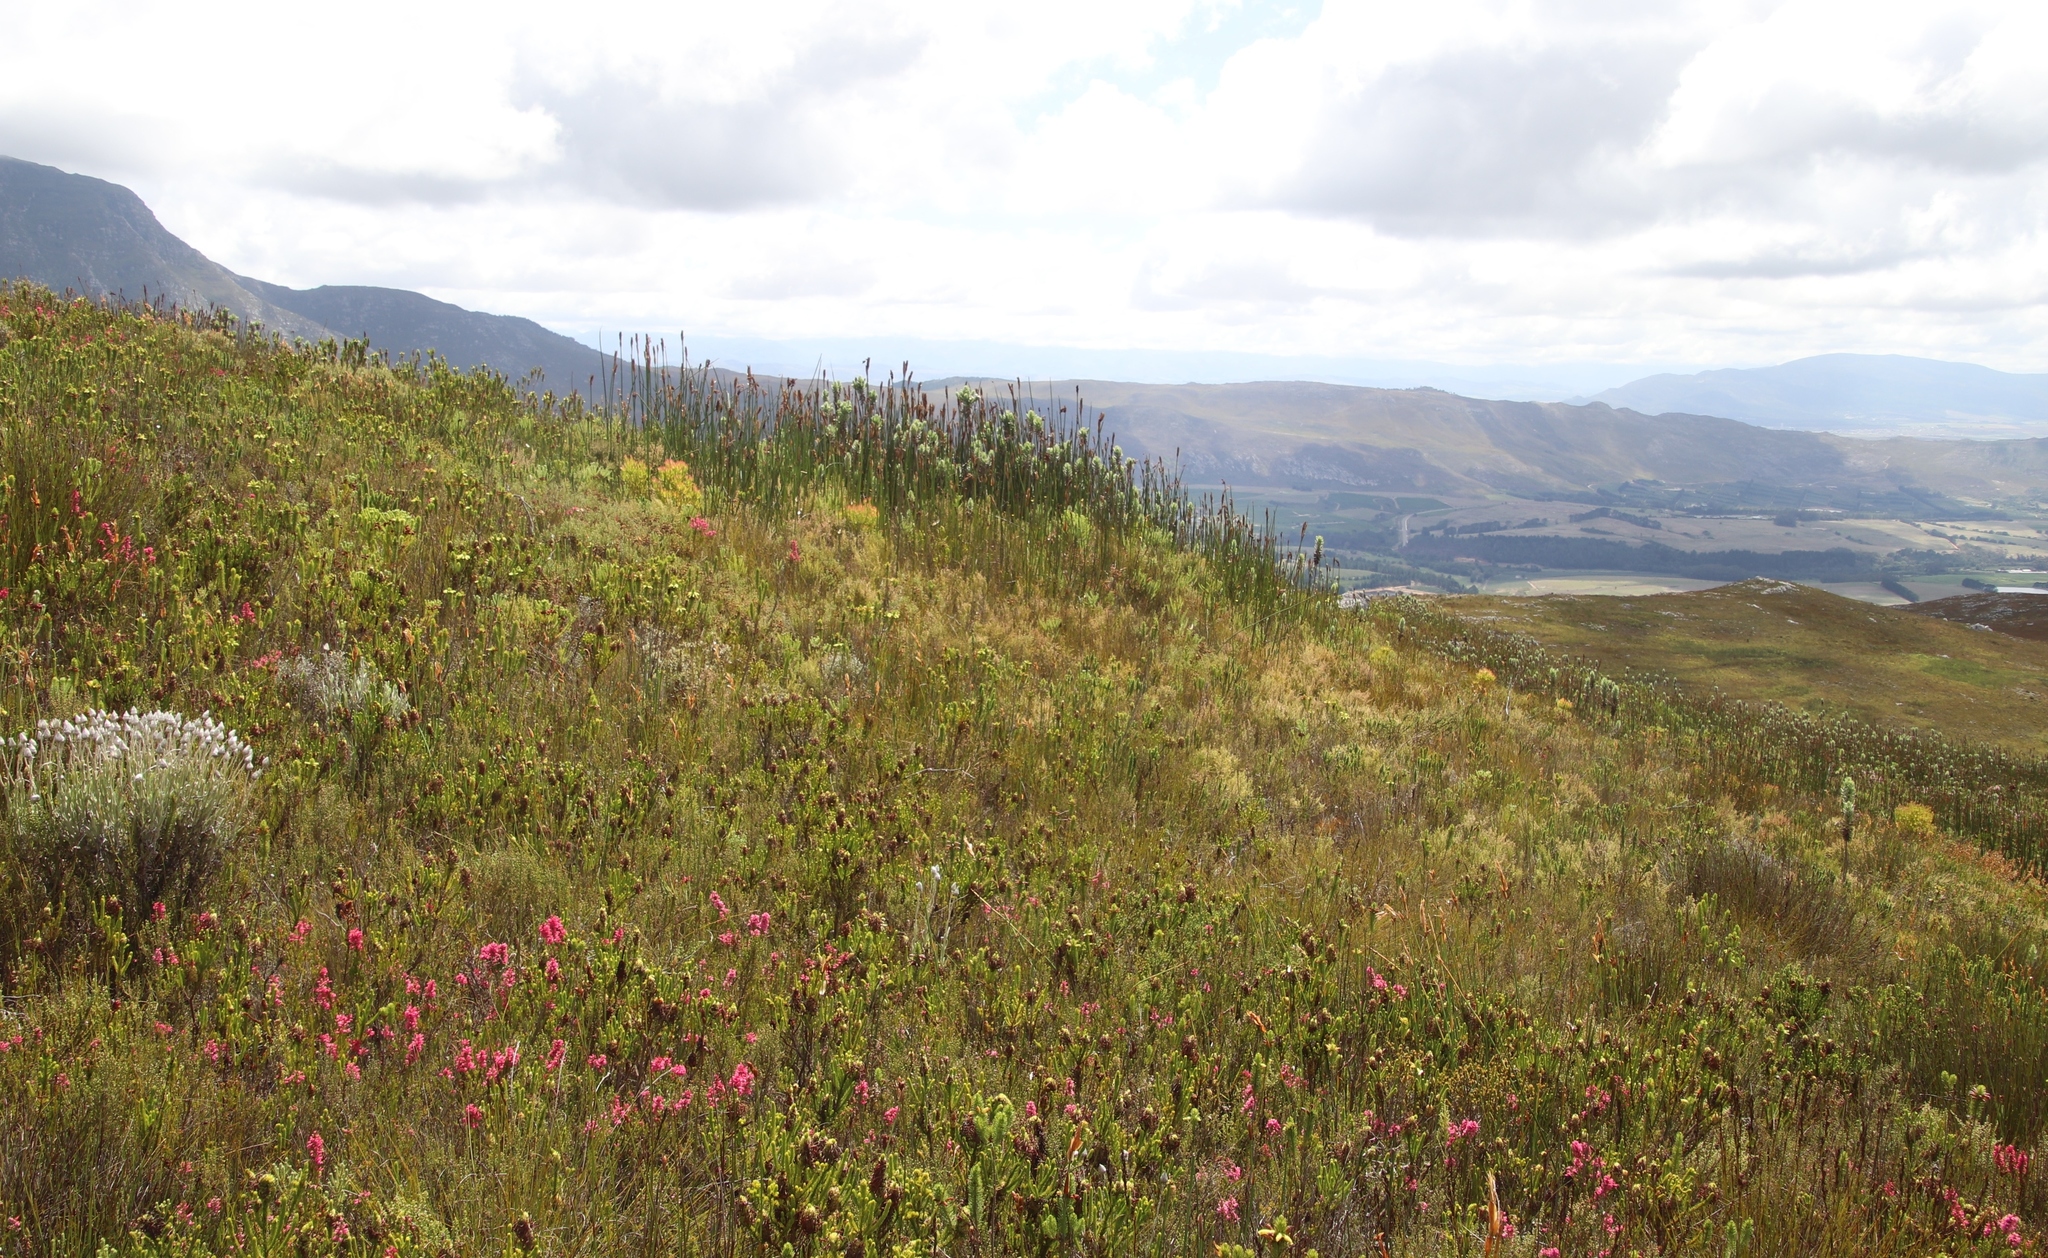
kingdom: Plantae
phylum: Tracheophyta
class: Liliopsida
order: Poales
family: Restionaceae
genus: Elegia
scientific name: Elegia mucronata
